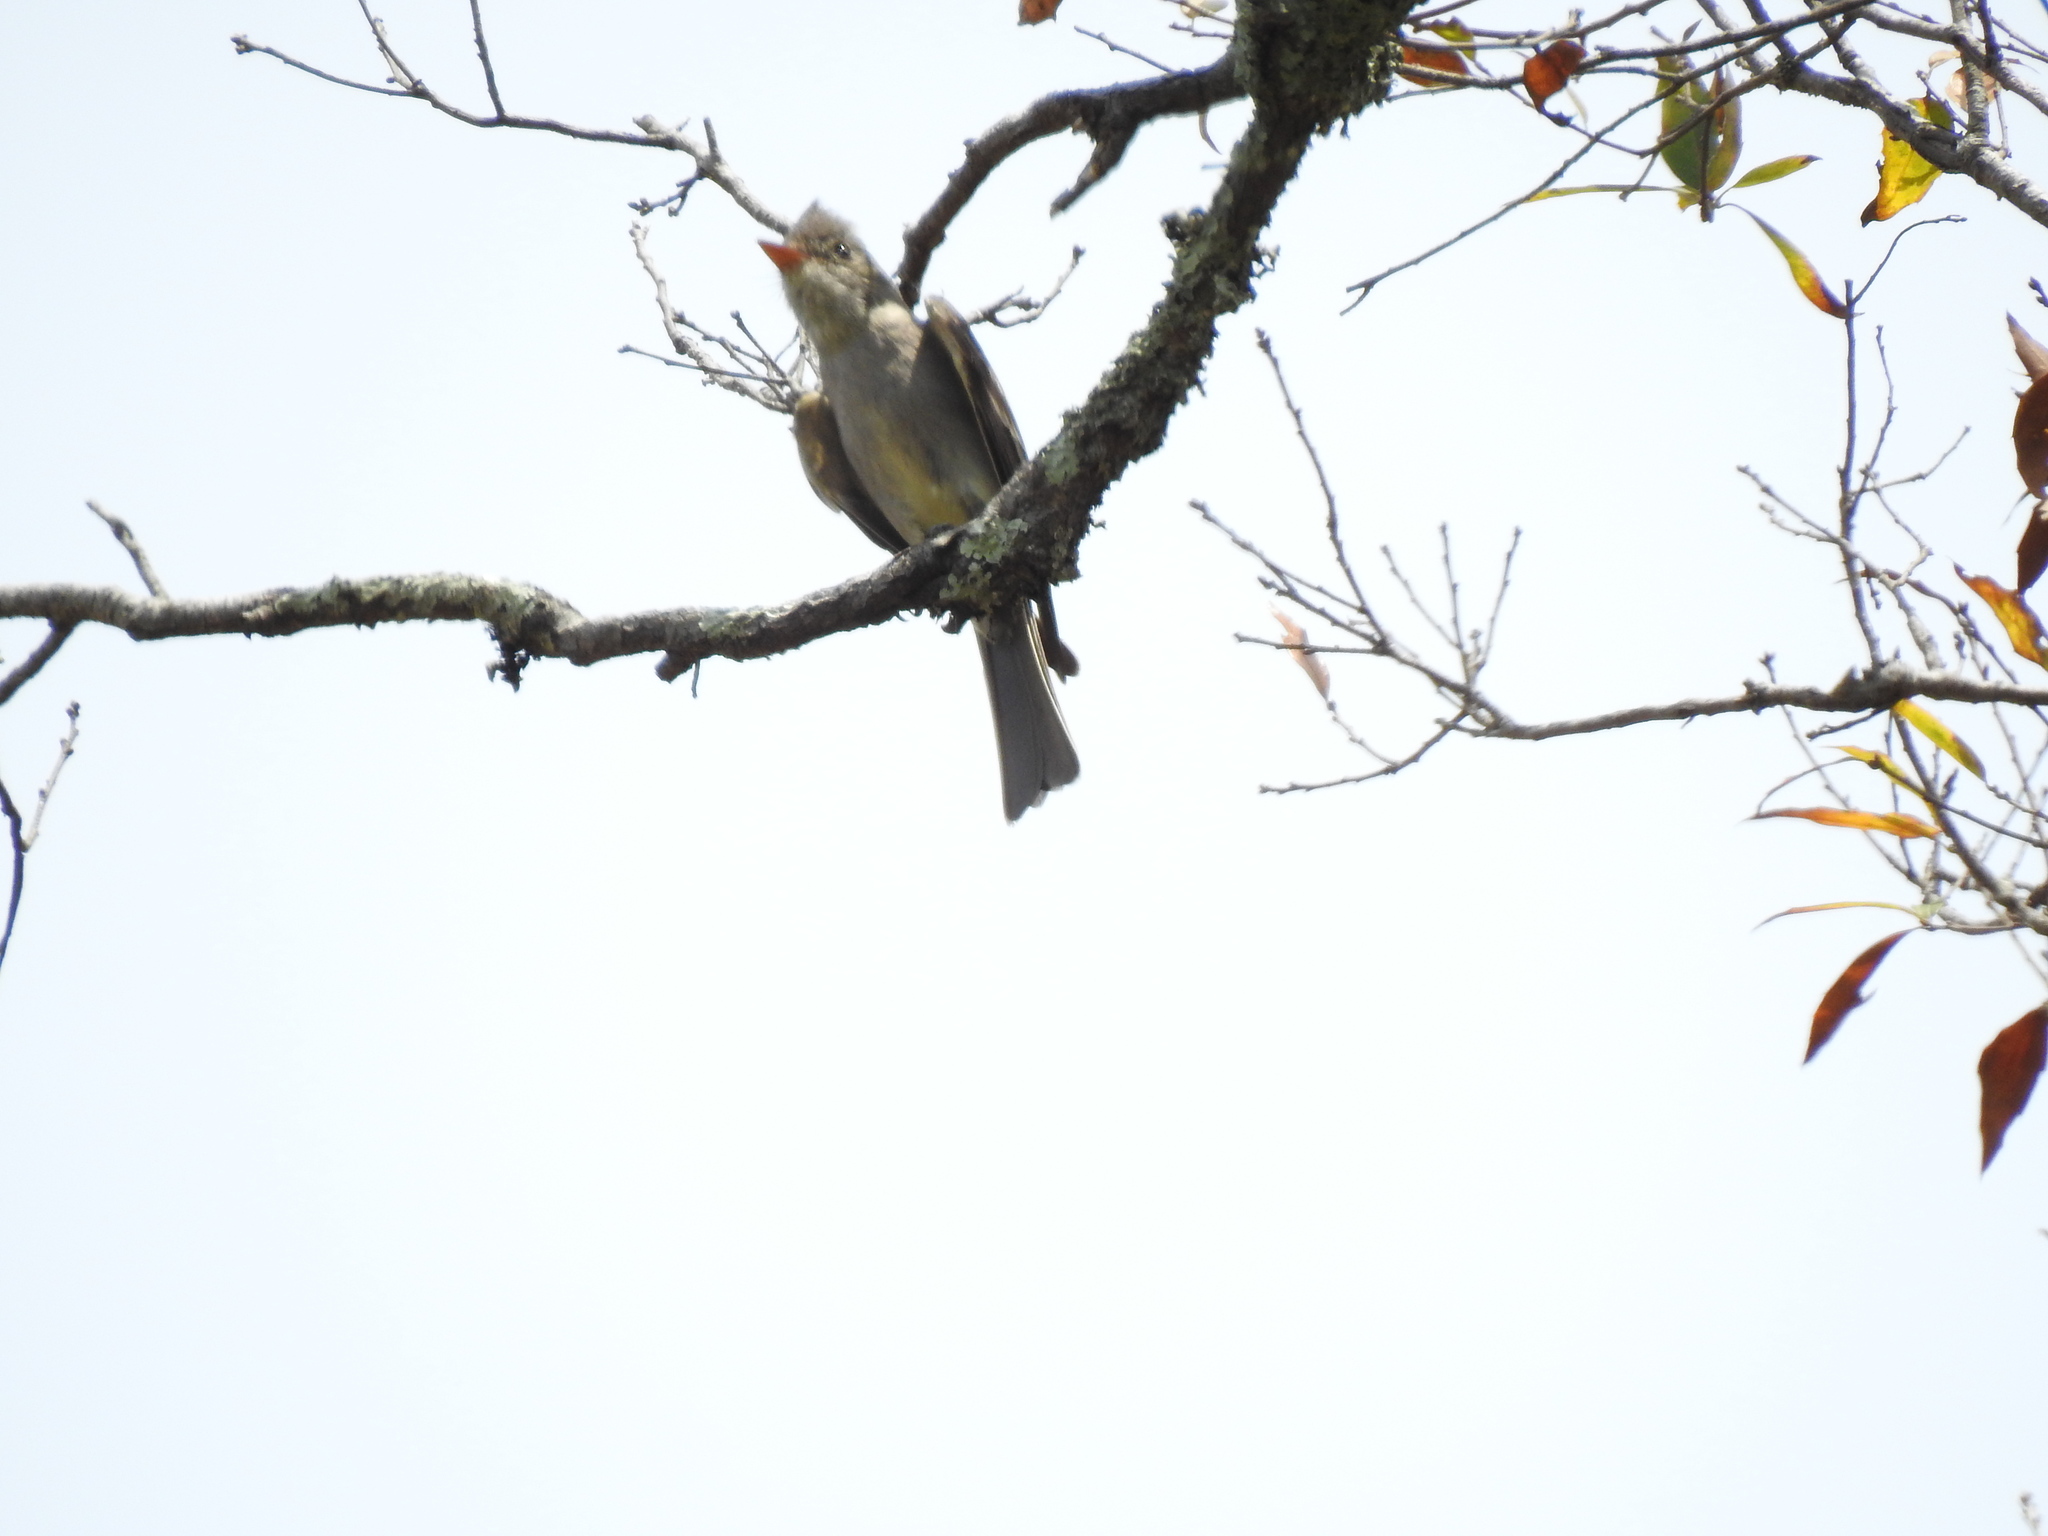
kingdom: Animalia
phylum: Chordata
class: Aves
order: Passeriformes
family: Tyrannidae
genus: Contopus
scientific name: Contopus pertinax
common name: Greater pewee
